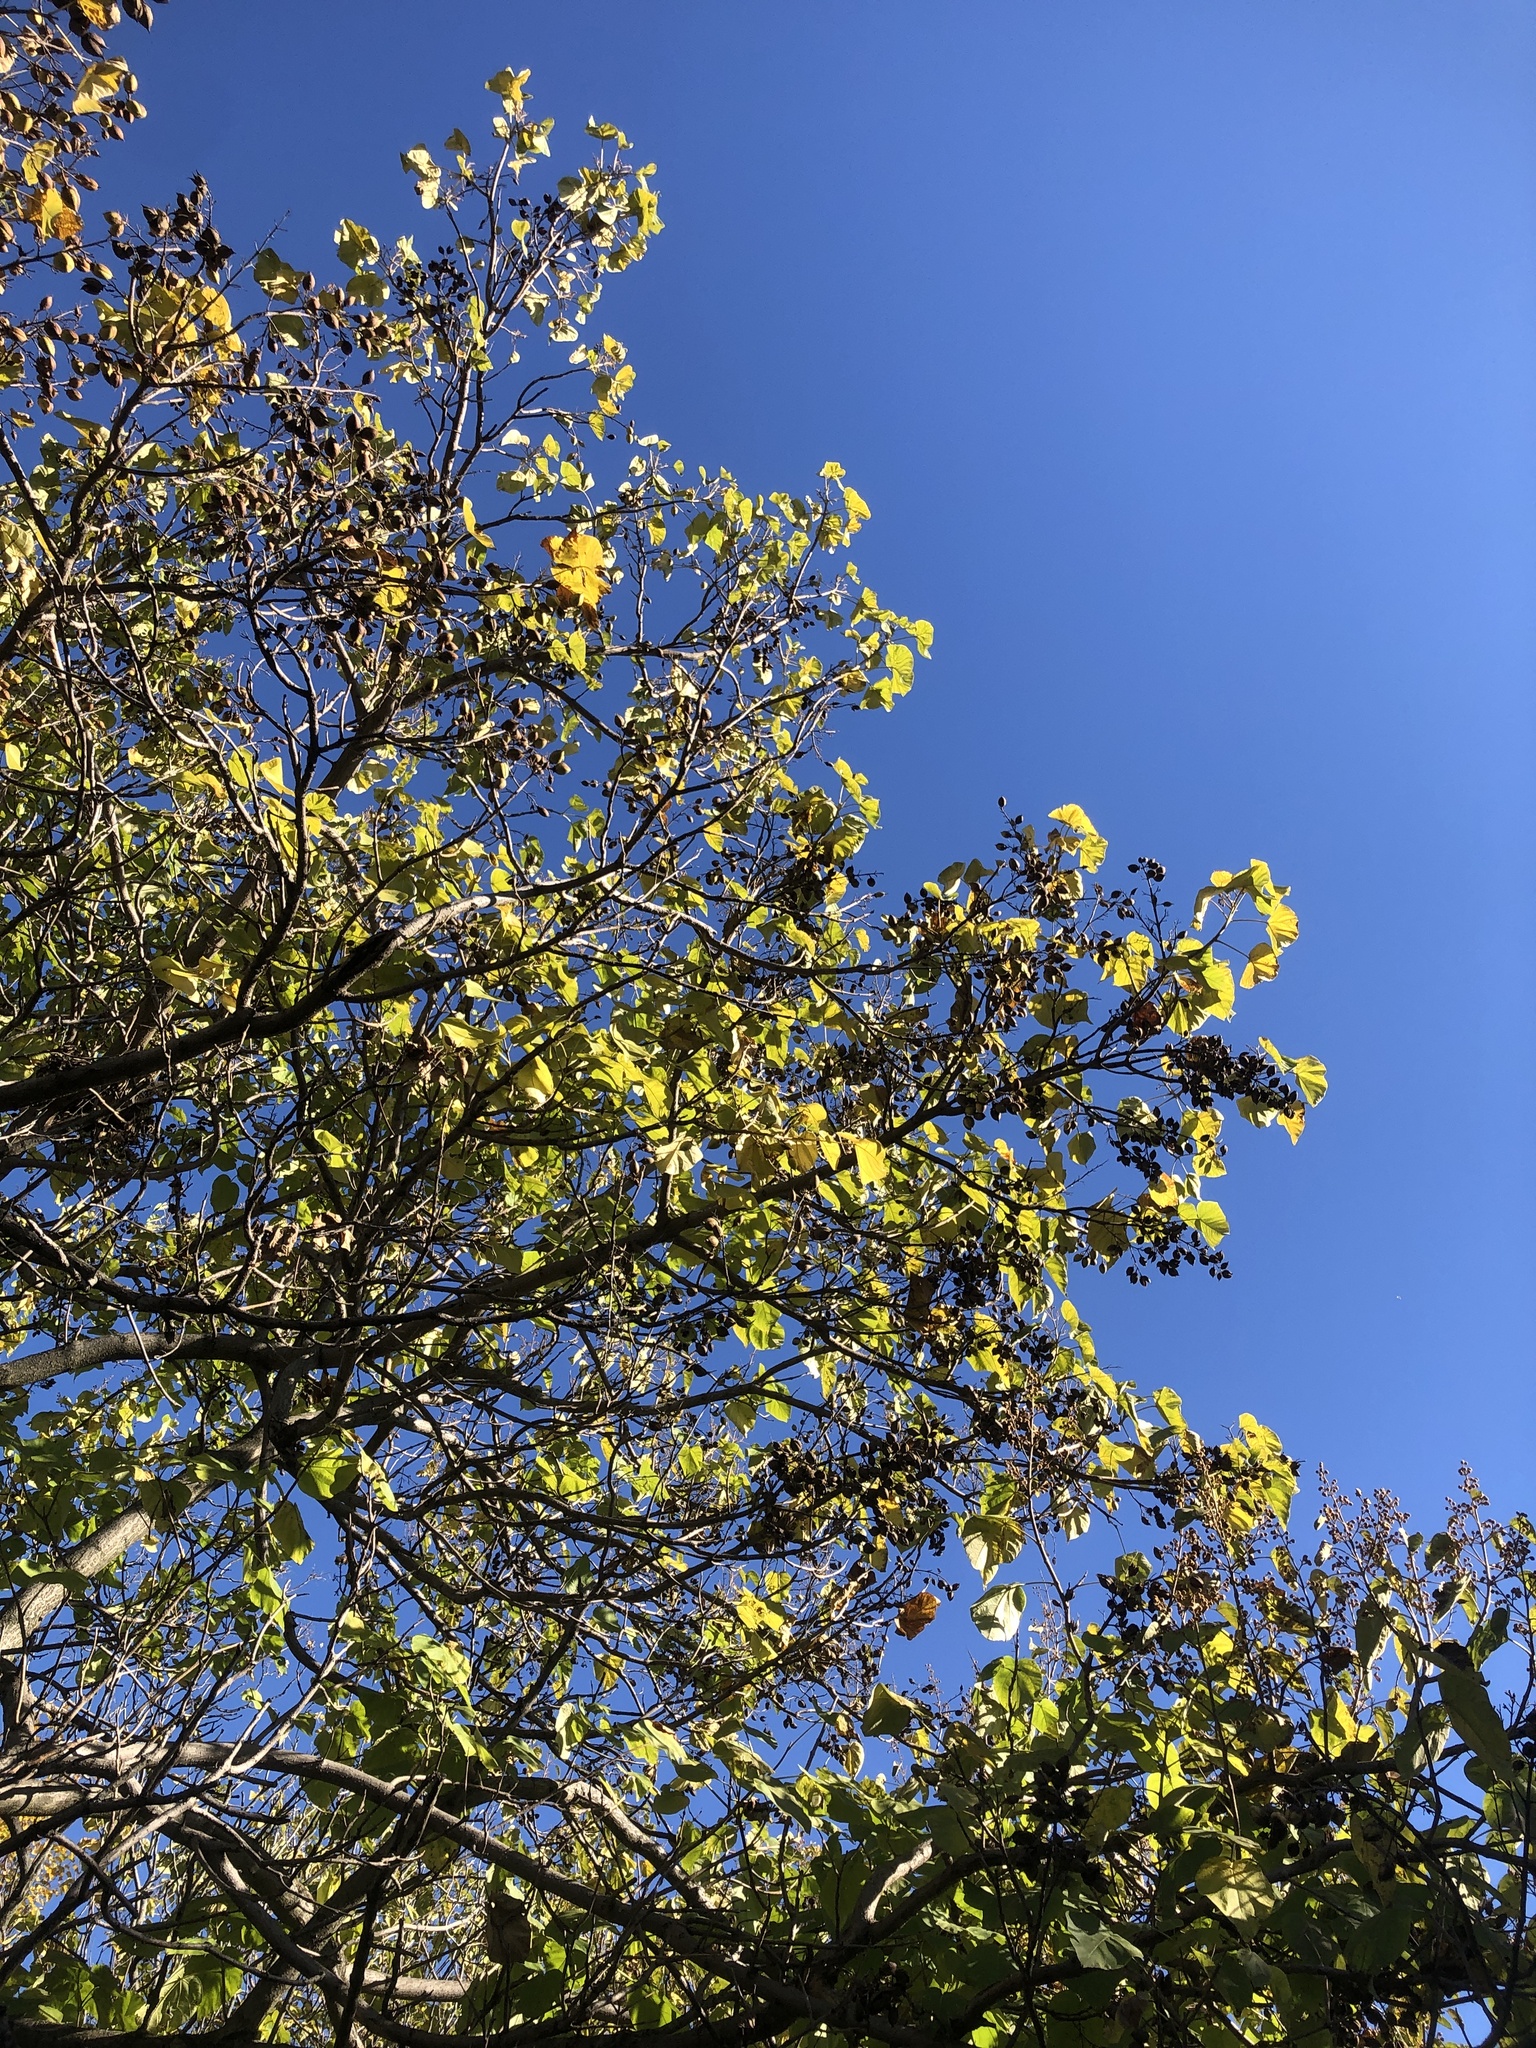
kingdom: Plantae
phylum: Tracheophyta
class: Magnoliopsida
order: Lamiales
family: Paulowniaceae
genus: Paulownia
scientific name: Paulownia tomentosa
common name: Foxglove-tree
